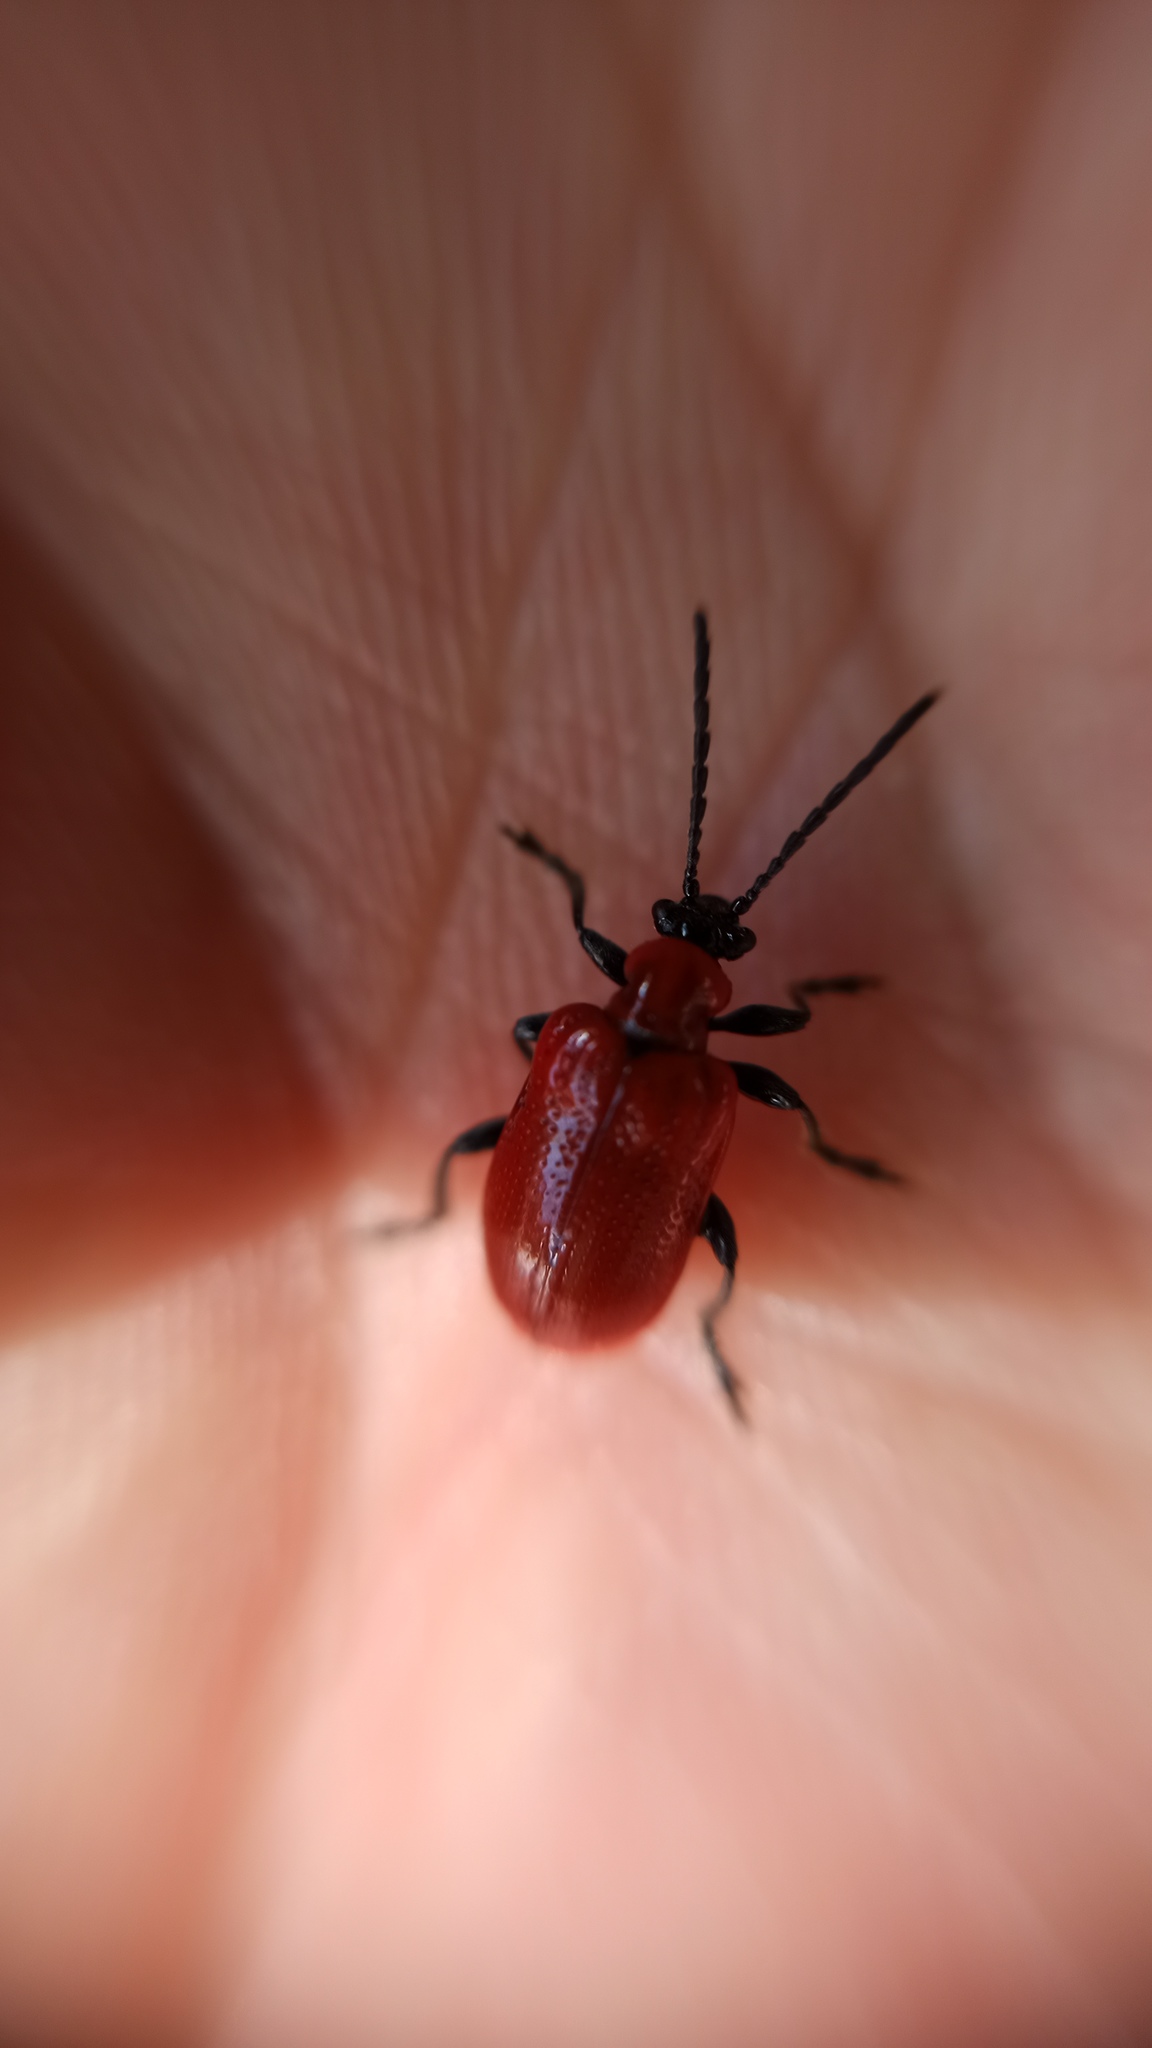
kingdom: Animalia
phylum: Arthropoda
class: Insecta
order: Coleoptera
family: Chrysomelidae
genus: Lilioceris
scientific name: Lilioceris lilii
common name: Lily beetle
